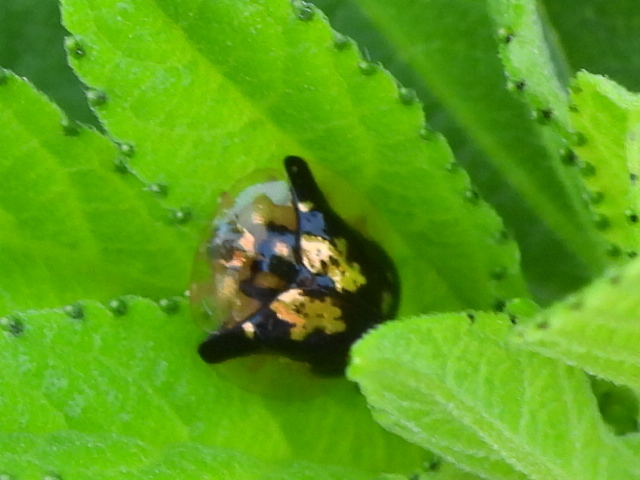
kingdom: Animalia
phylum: Arthropoda
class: Insecta
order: Coleoptera
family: Chrysomelidae
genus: Deloyala
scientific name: Deloyala guttata
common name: Mottled tortoise beetle
